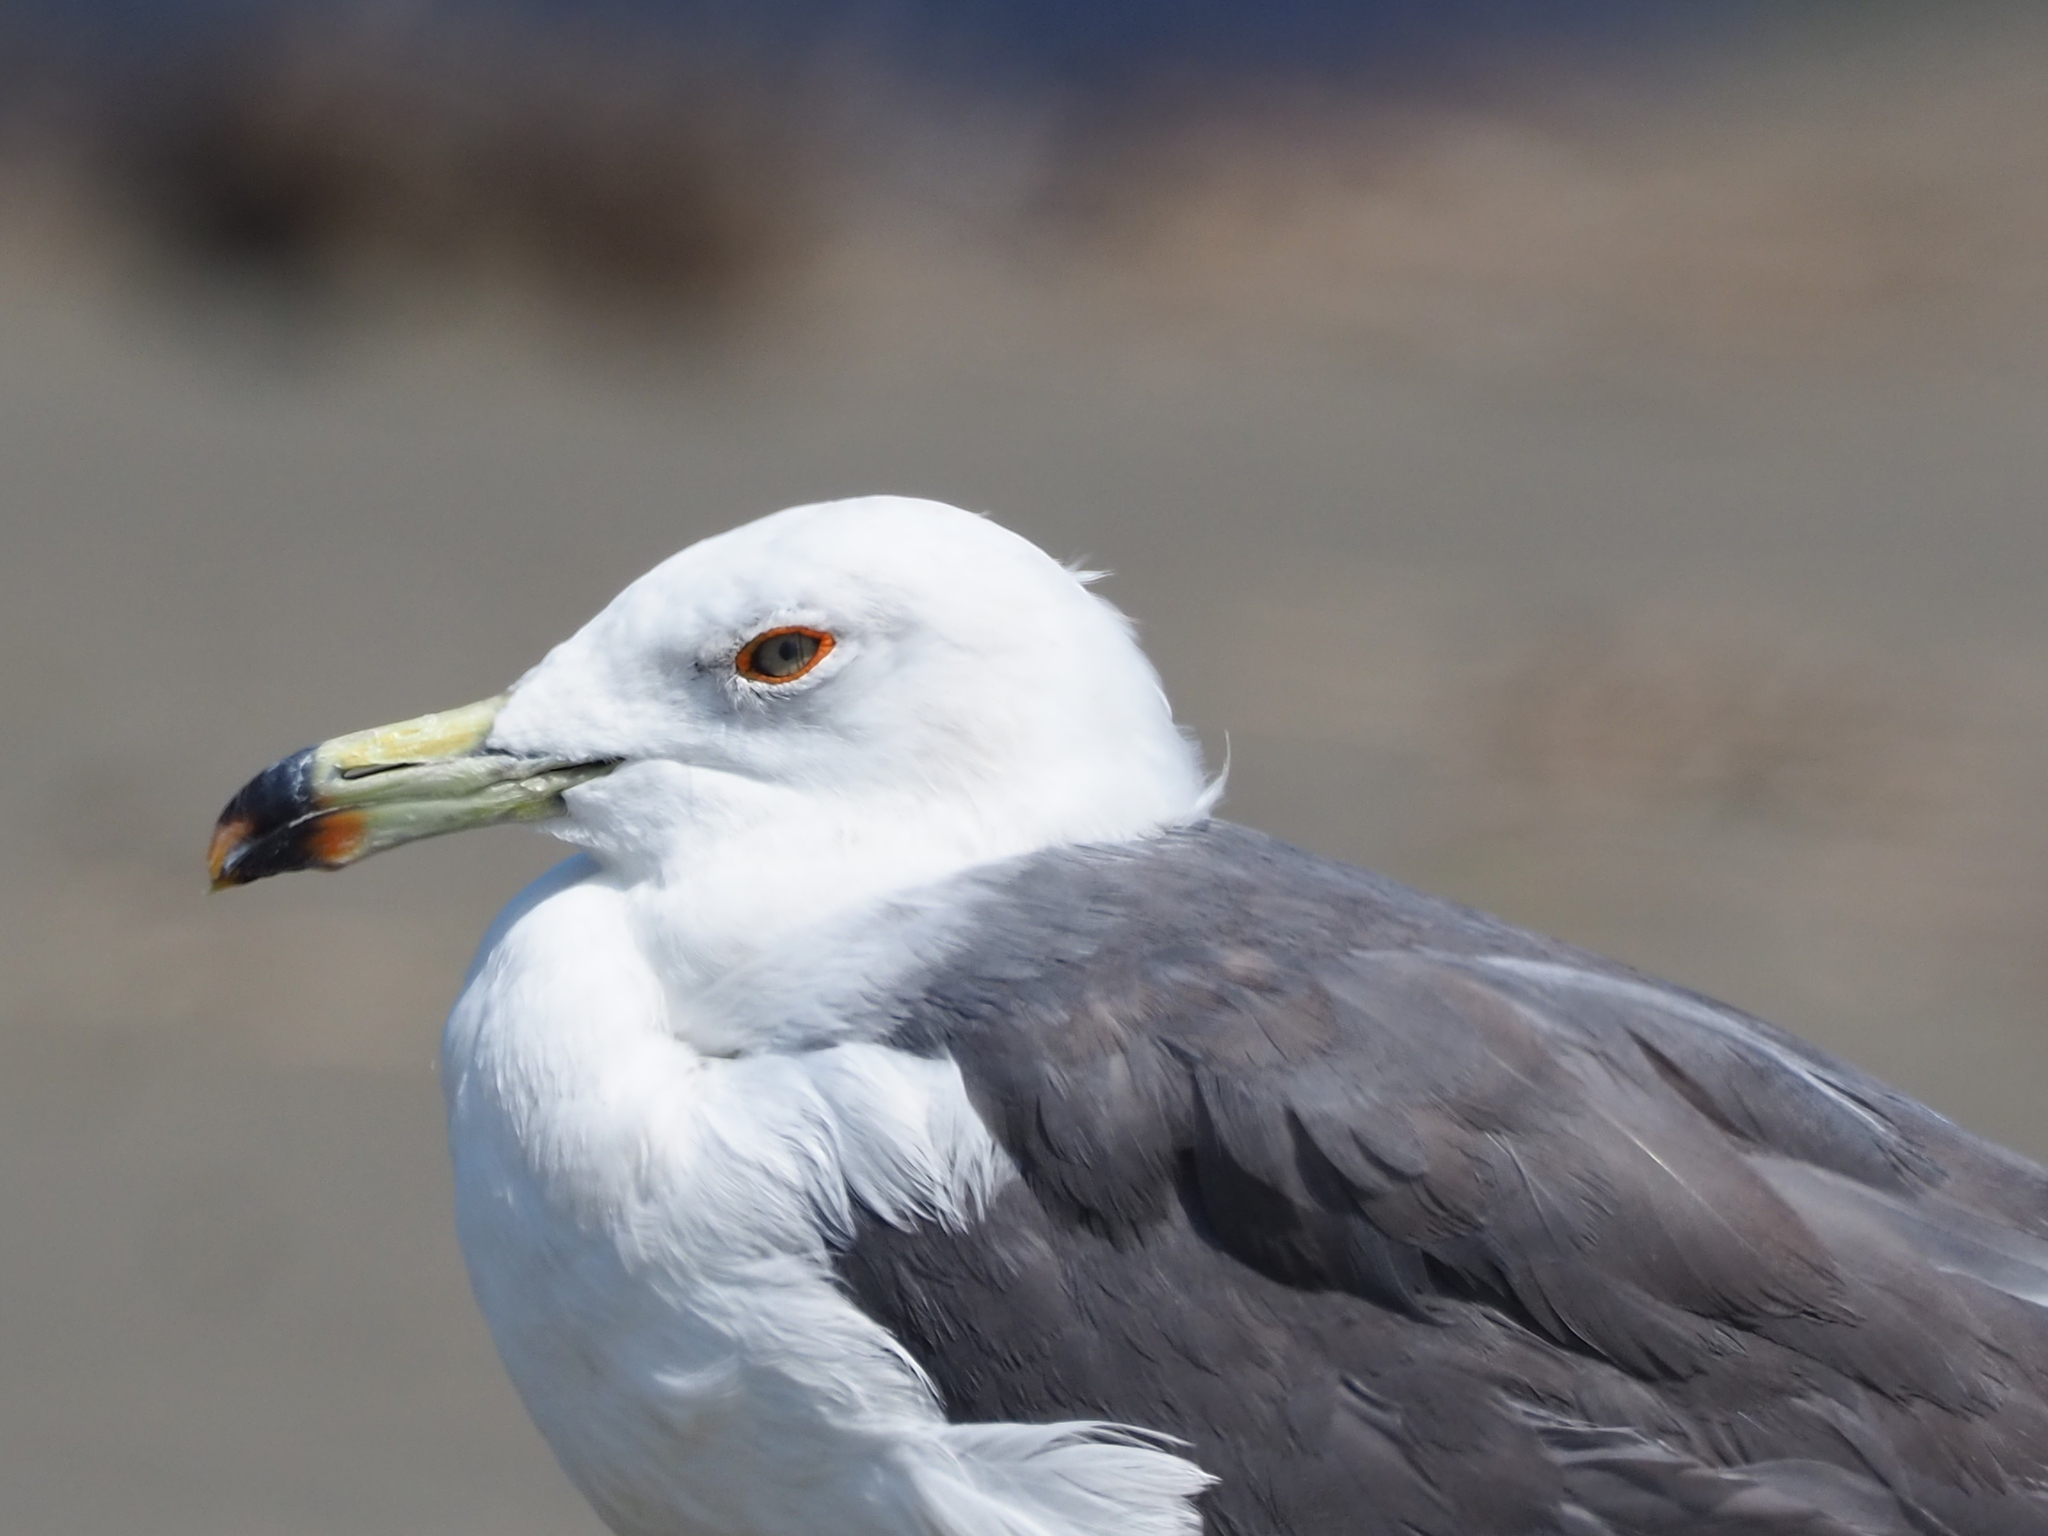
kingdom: Animalia
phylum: Chordata
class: Aves
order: Charadriiformes
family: Laridae
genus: Larus
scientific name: Larus crassirostris
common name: Black-tailed gull
